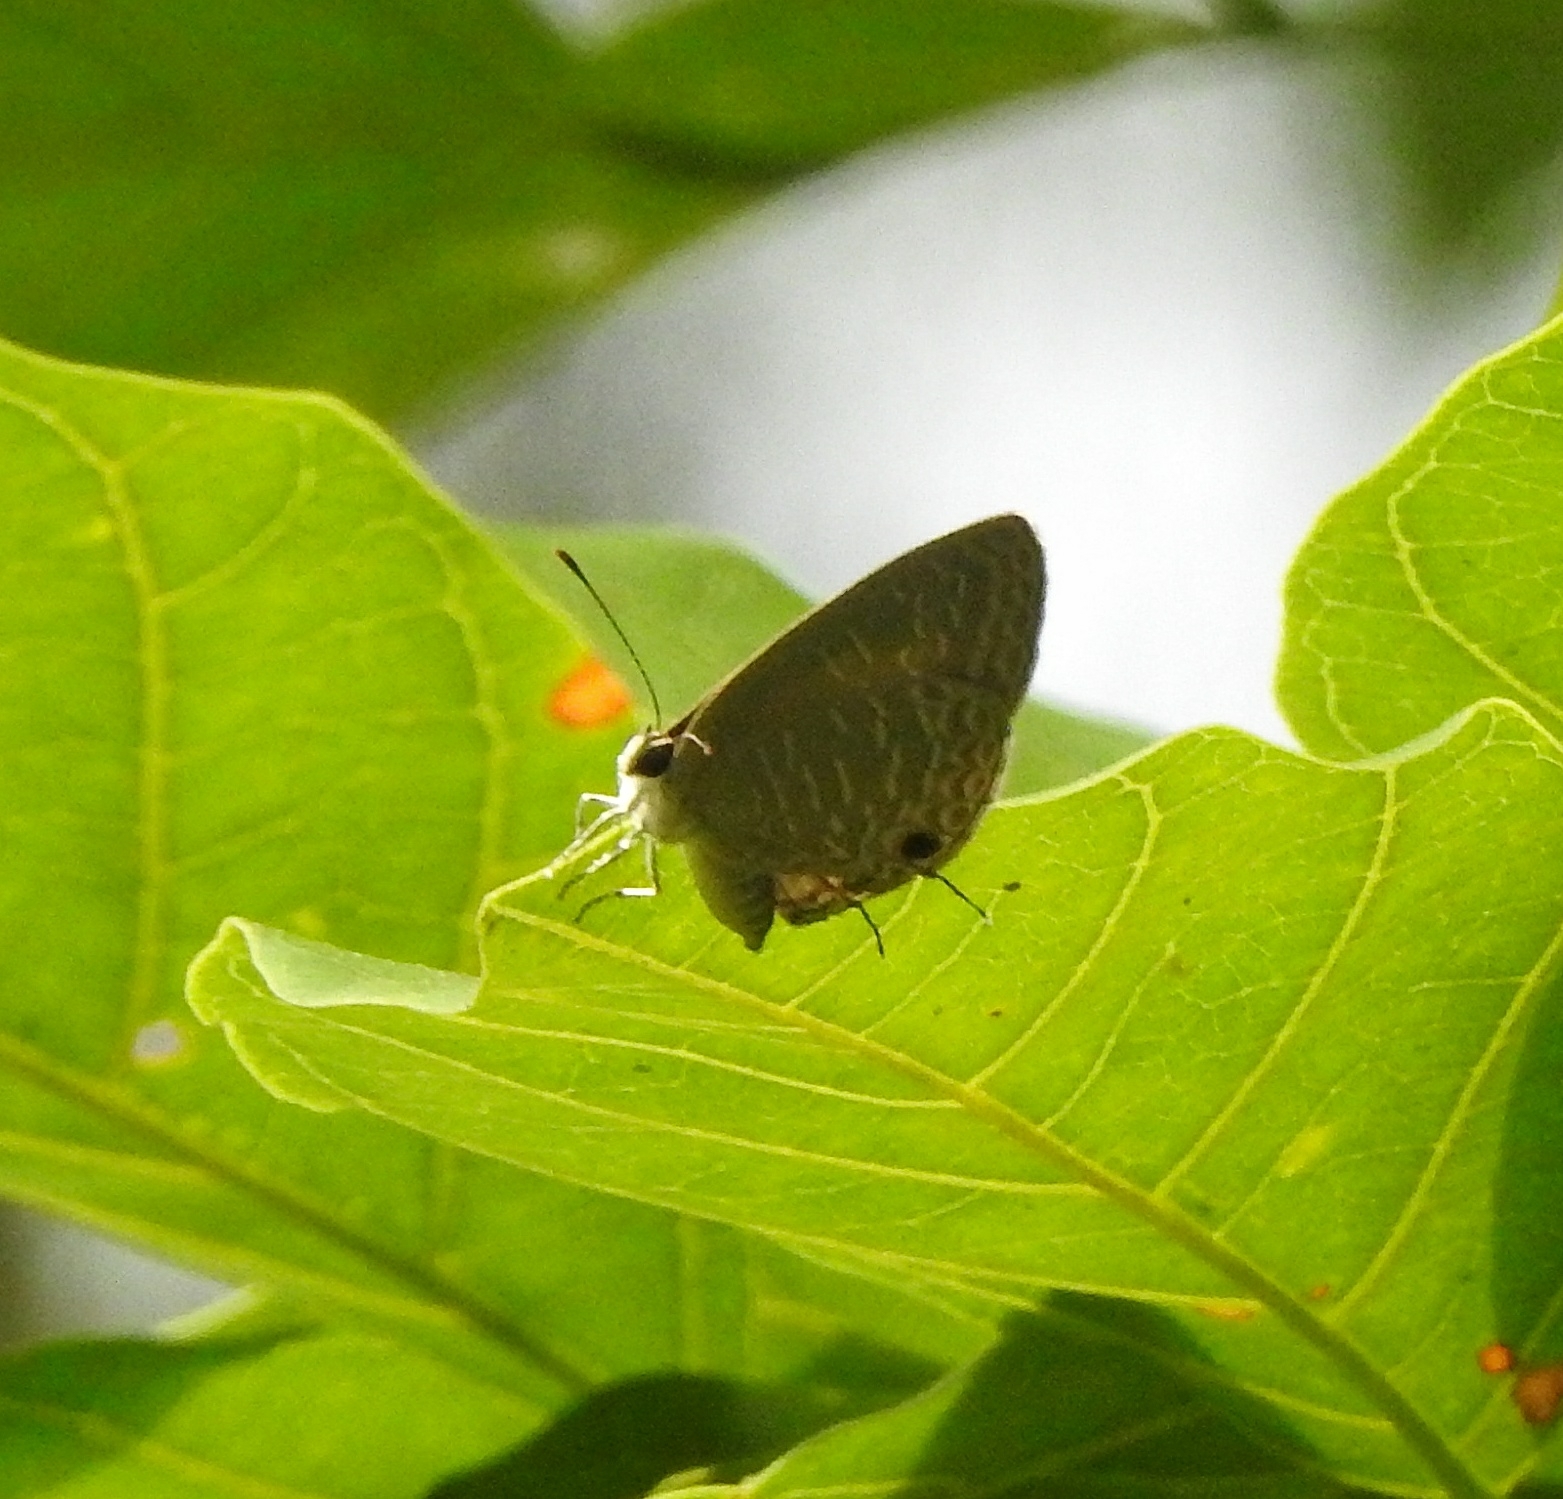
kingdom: Animalia
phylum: Arthropoda
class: Insecta
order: Lepidoptera
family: Lycaenidae
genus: Jamides
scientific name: Jamides bochus
